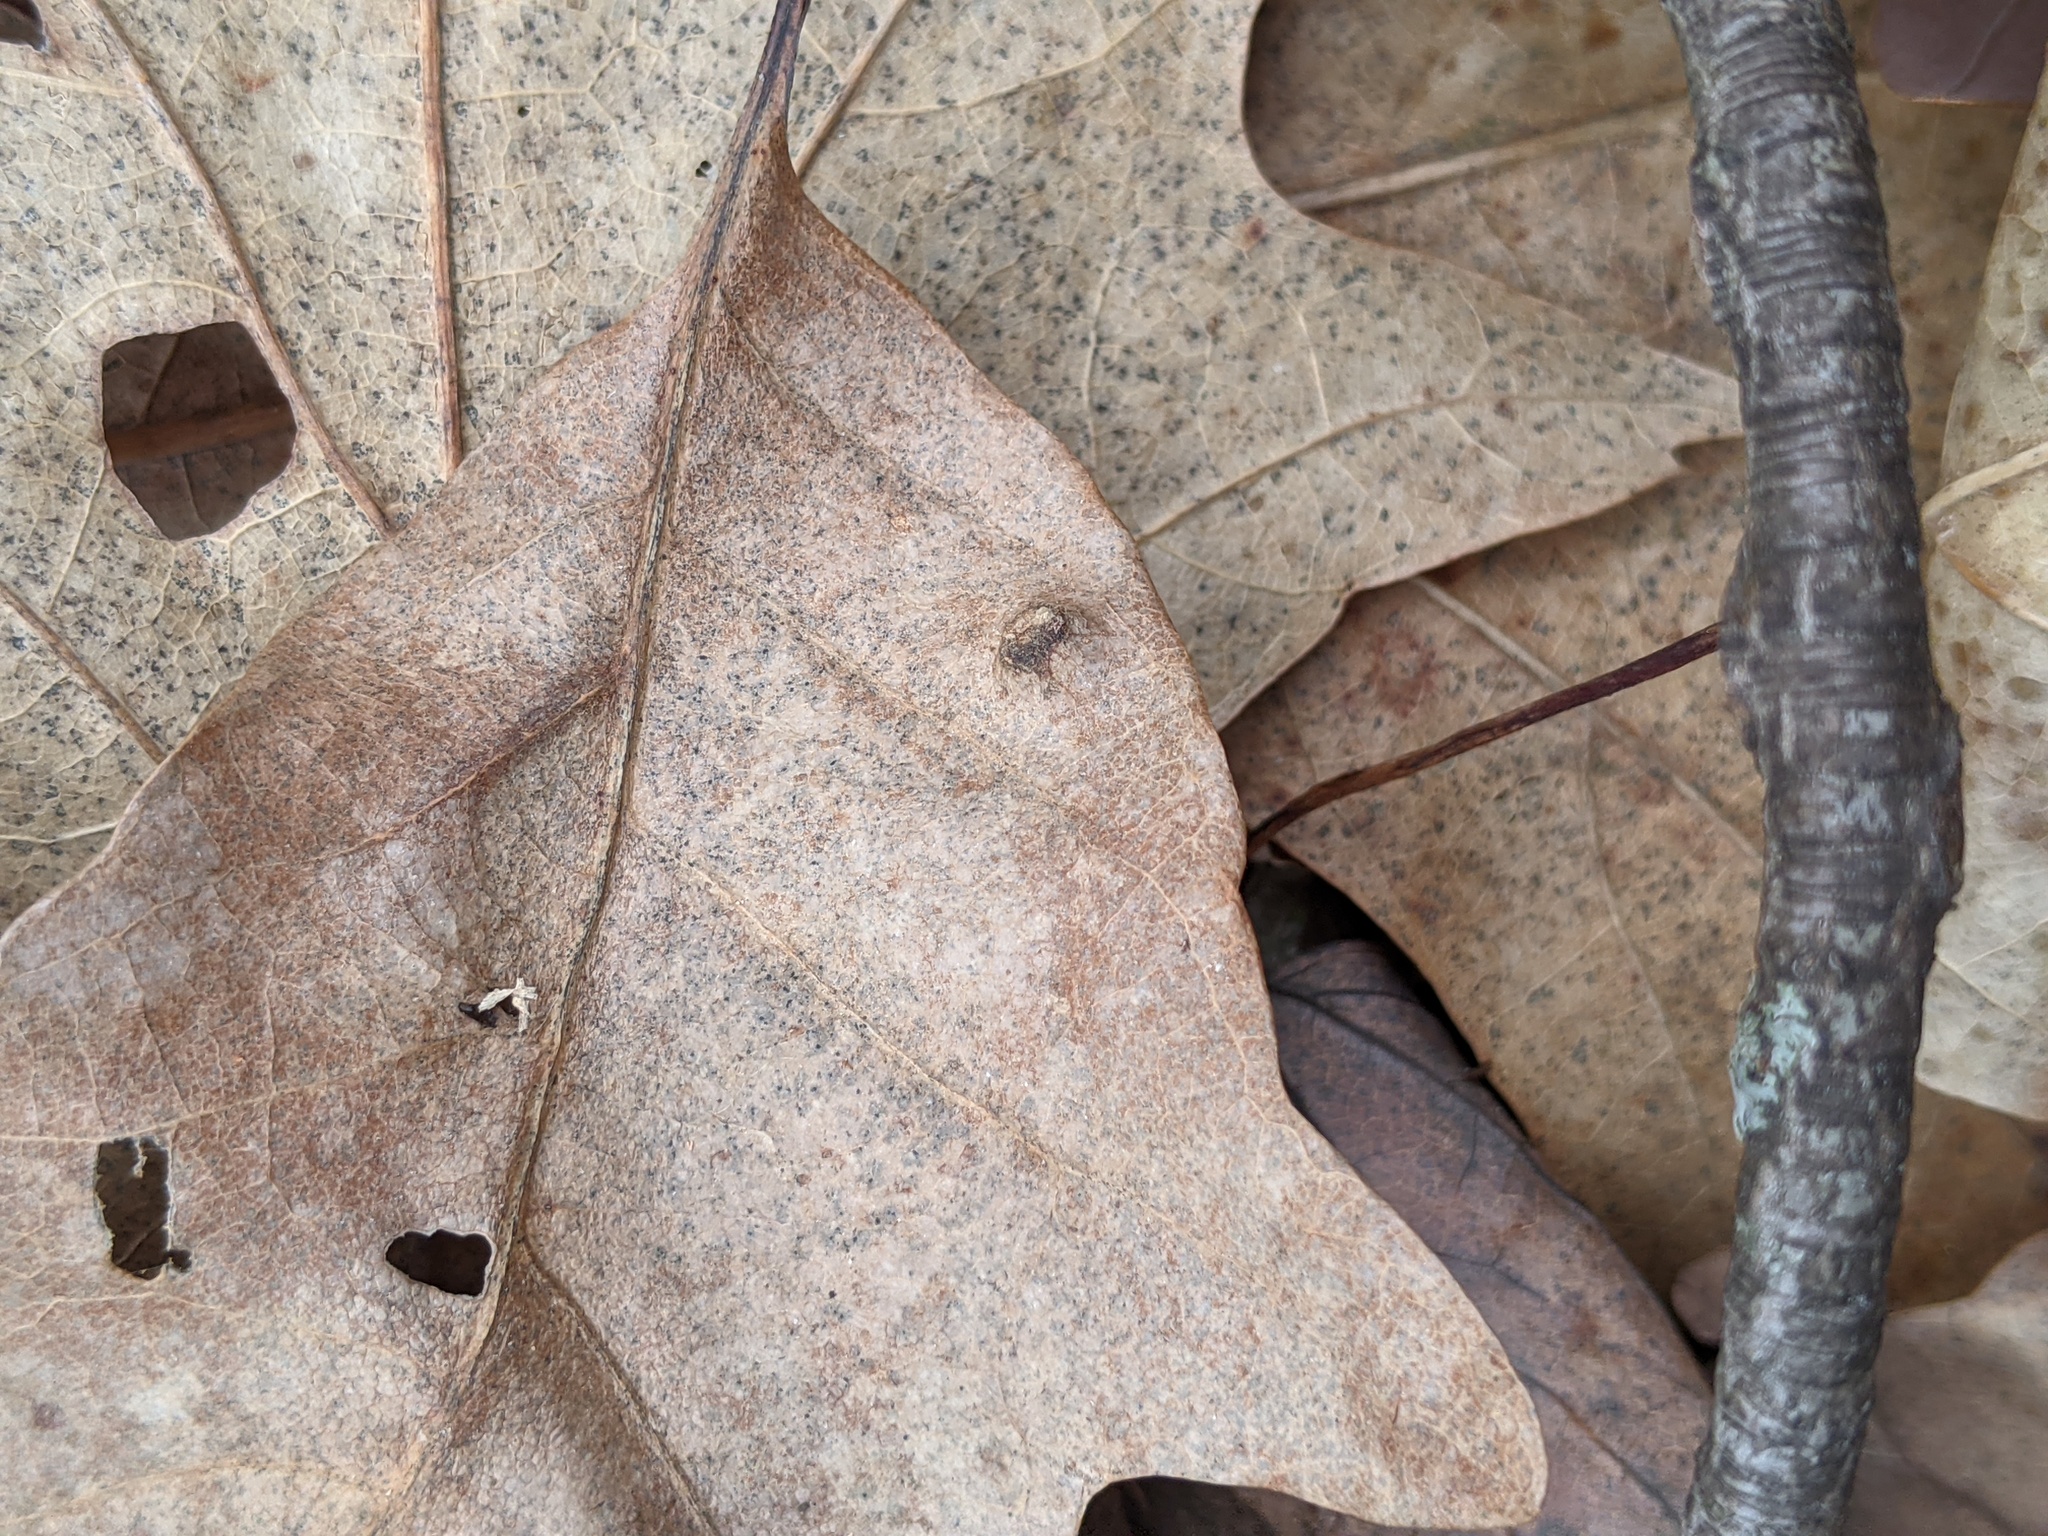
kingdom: Animalia
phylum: Arthropoda
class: Arachnida
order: Trombidiformes
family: Eriophyidae
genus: Aceria
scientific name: Aceria
